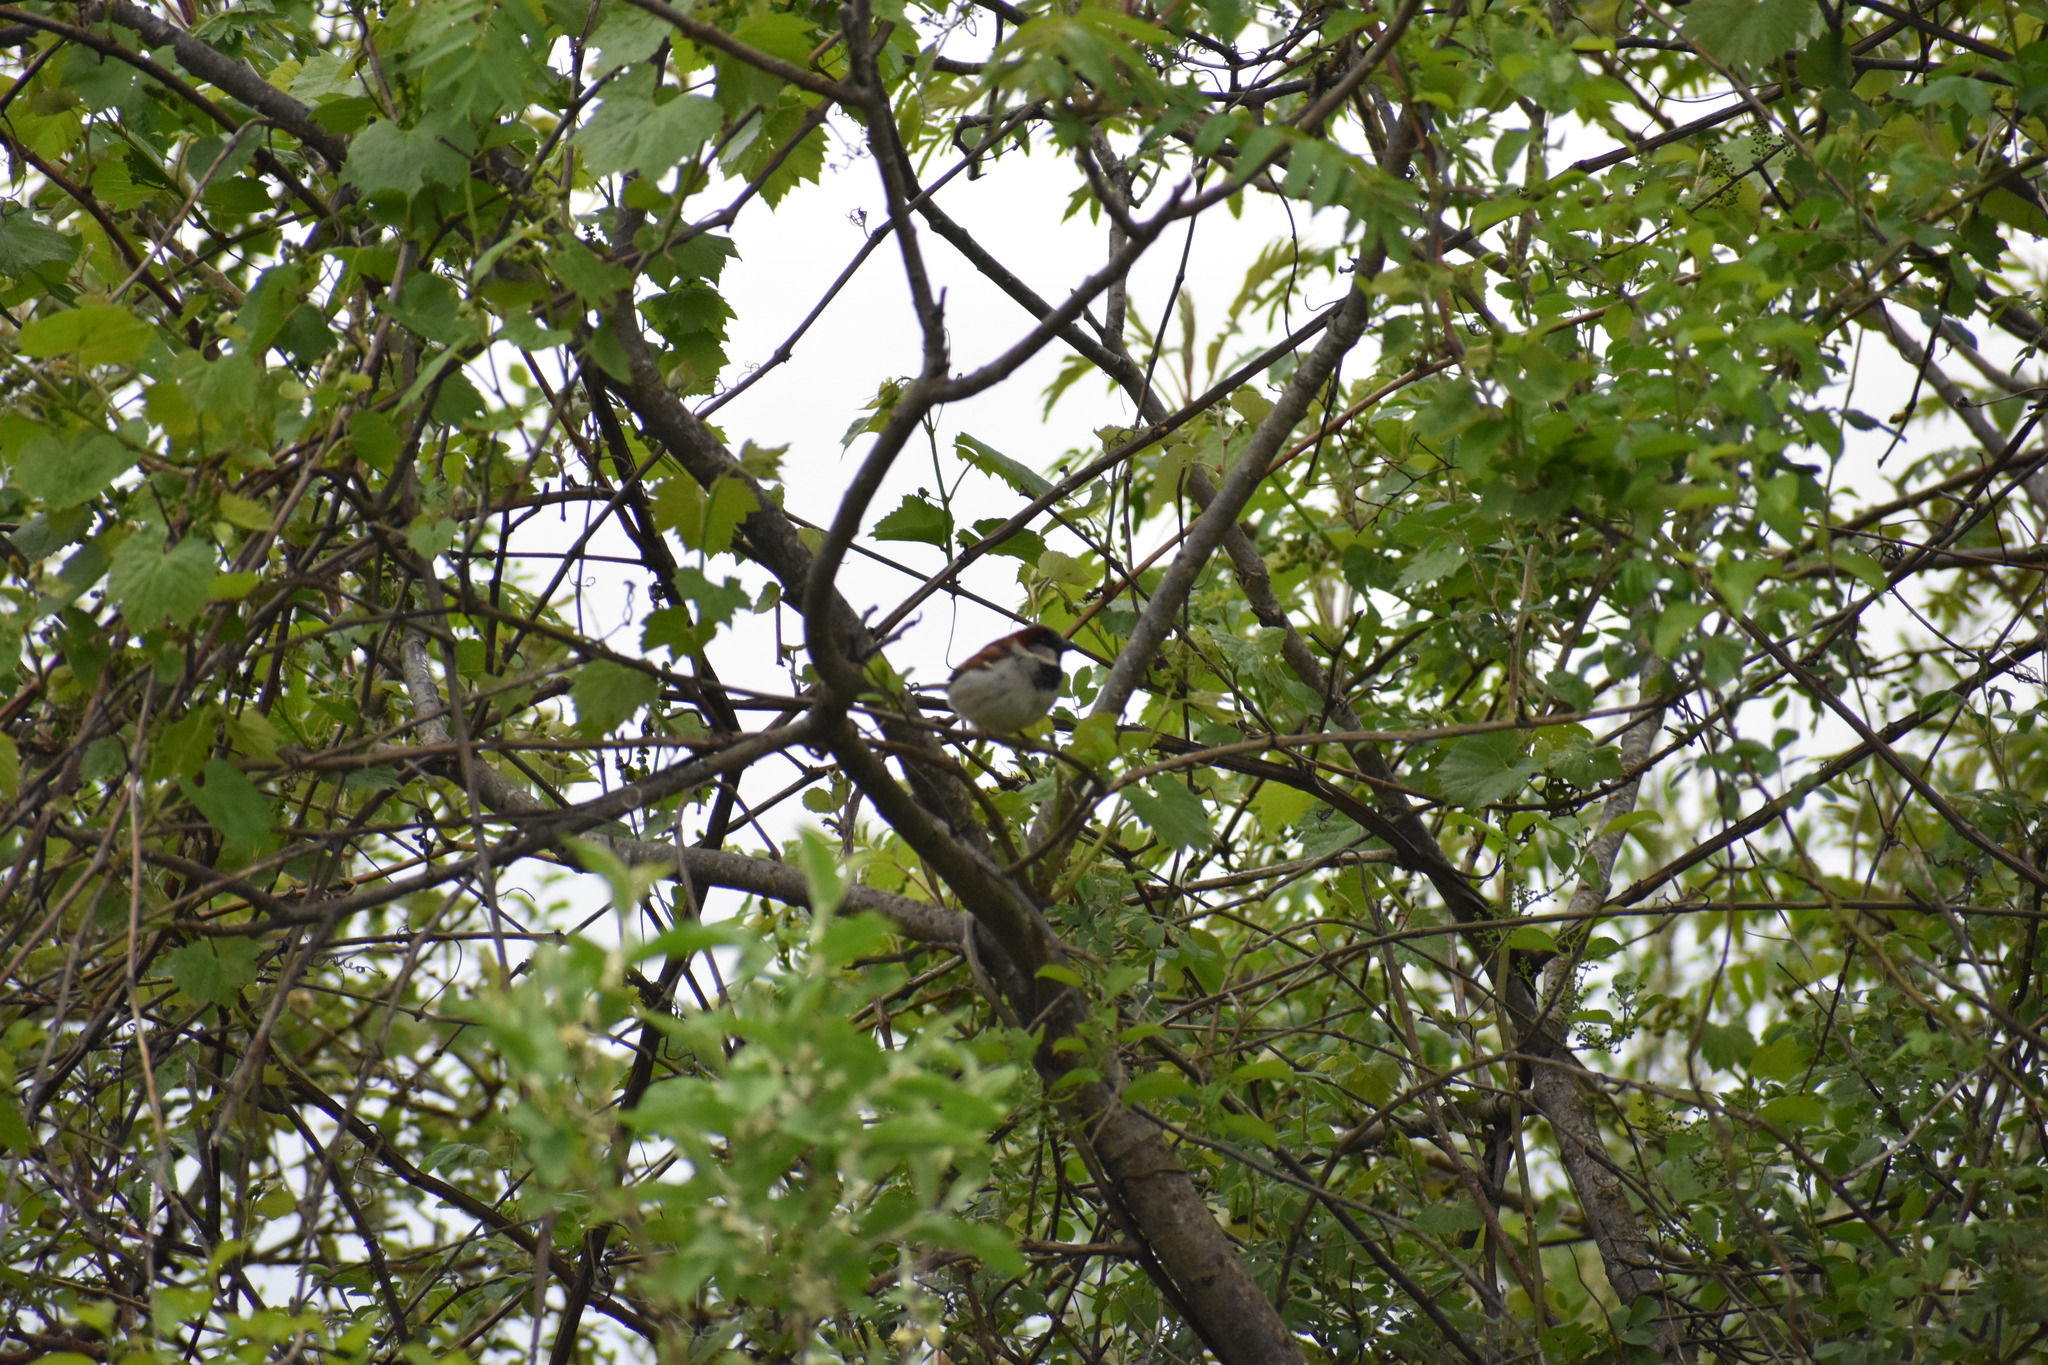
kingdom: Animalia
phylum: Chordata
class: Aves
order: Passeriformes
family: Passeridae
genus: Passer
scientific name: Passer domesticus
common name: House sparrow
